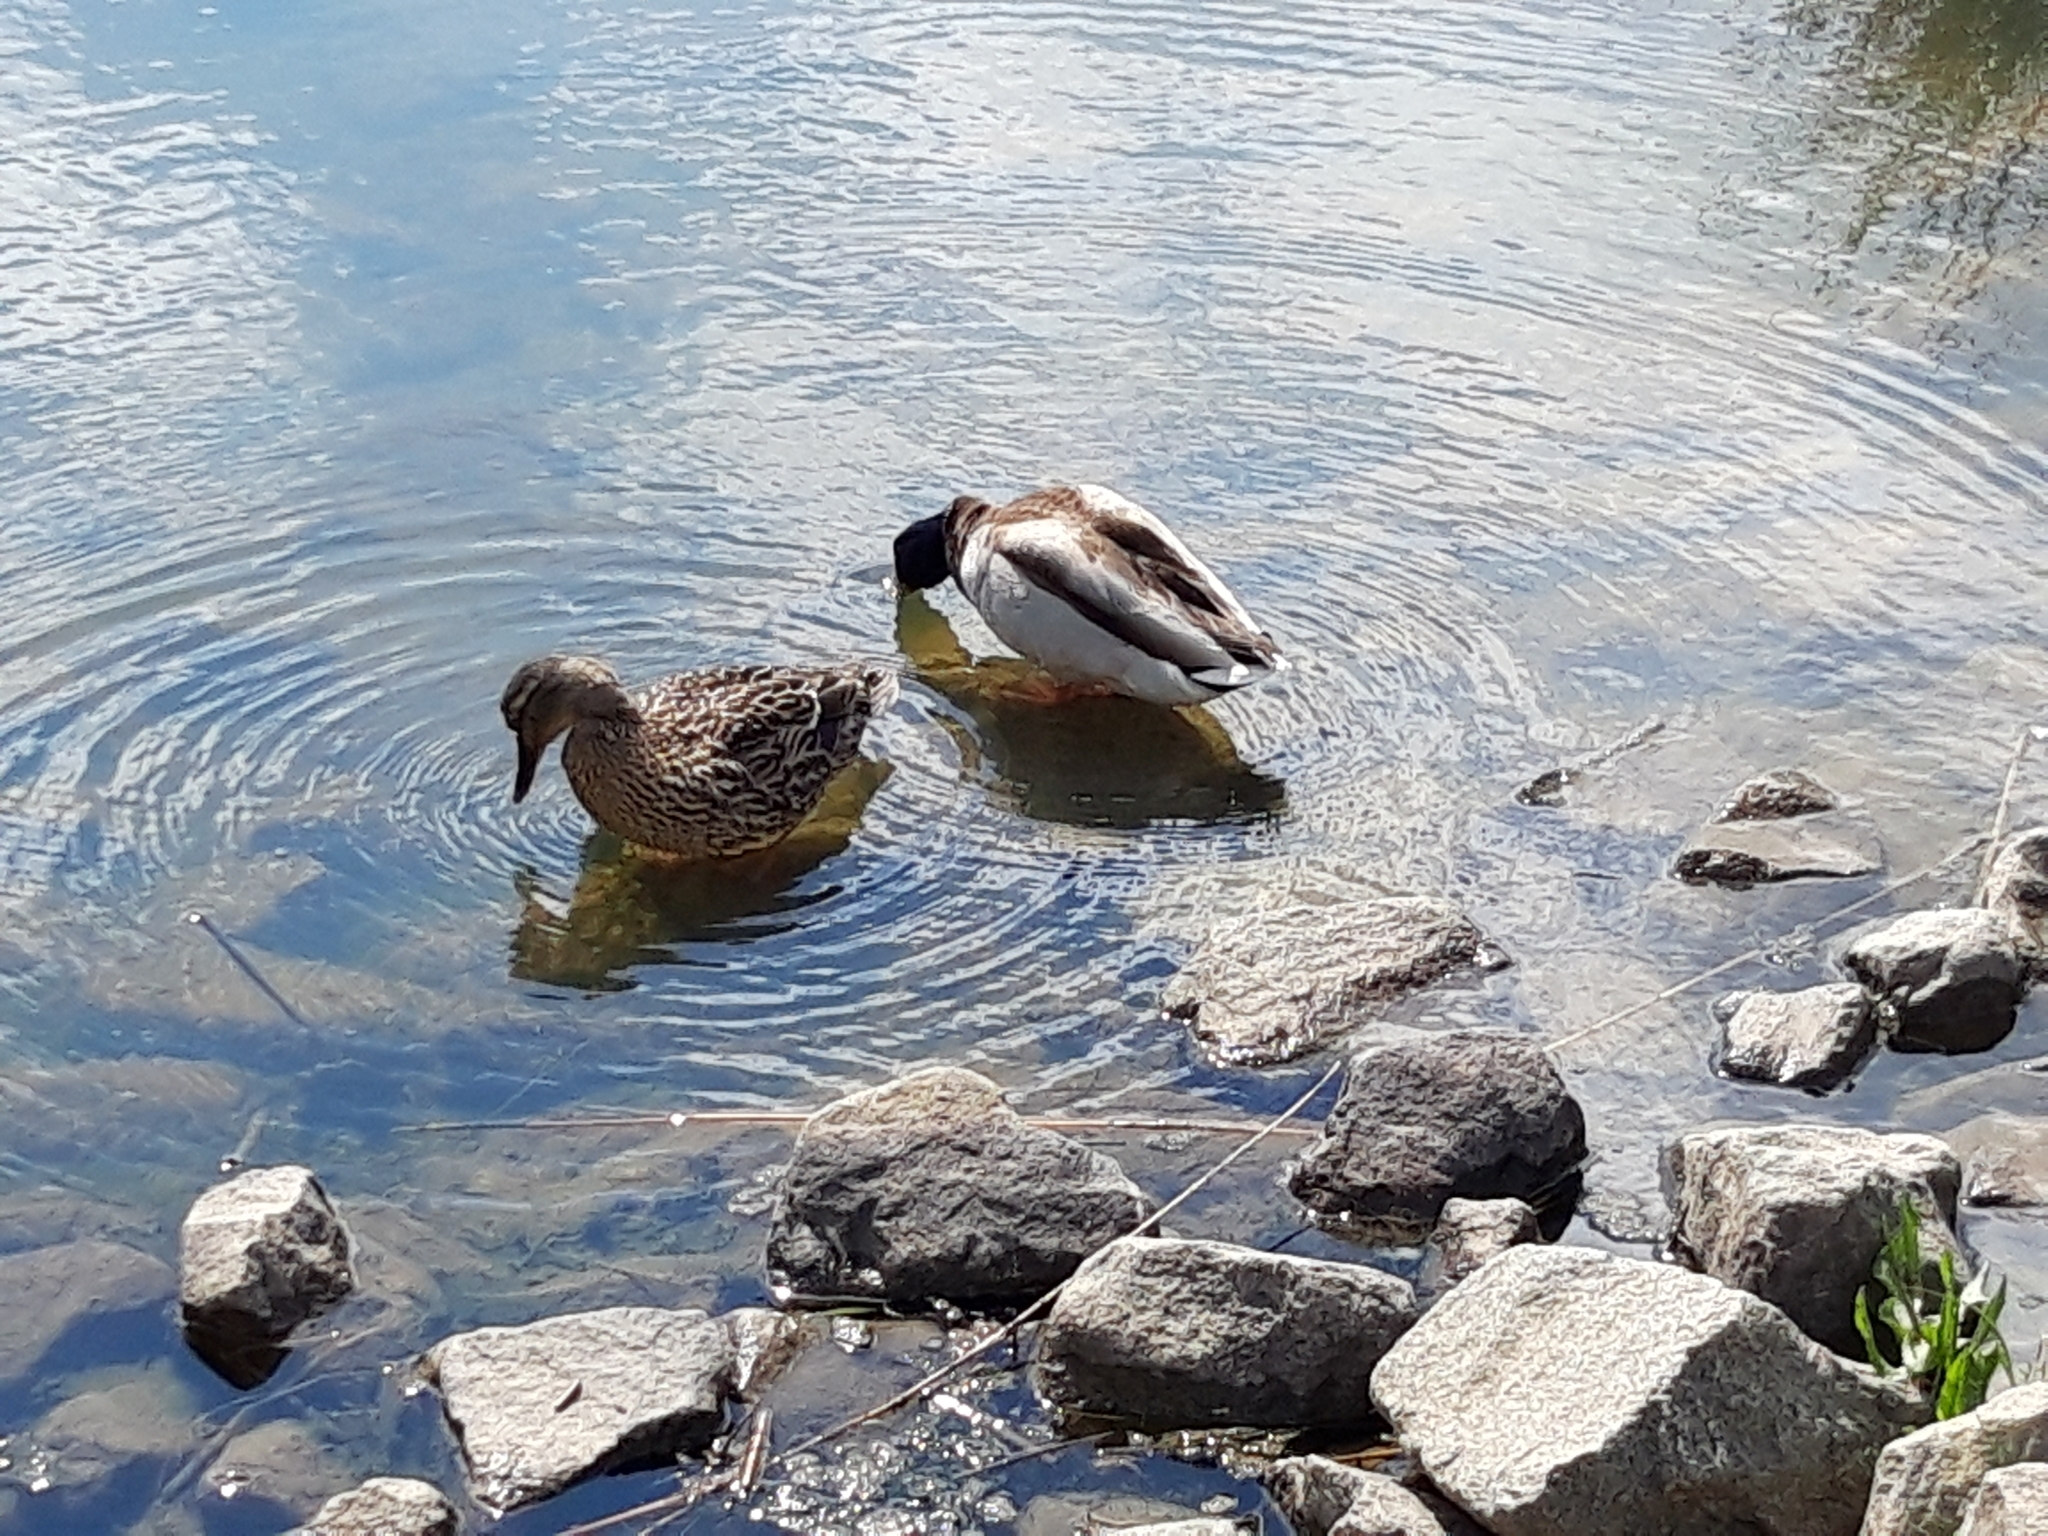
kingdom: Animalia
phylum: Chordata
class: Aves
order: Anseriformes
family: Anatidae
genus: Anas
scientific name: Anas platyrhynchos
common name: Mallard
